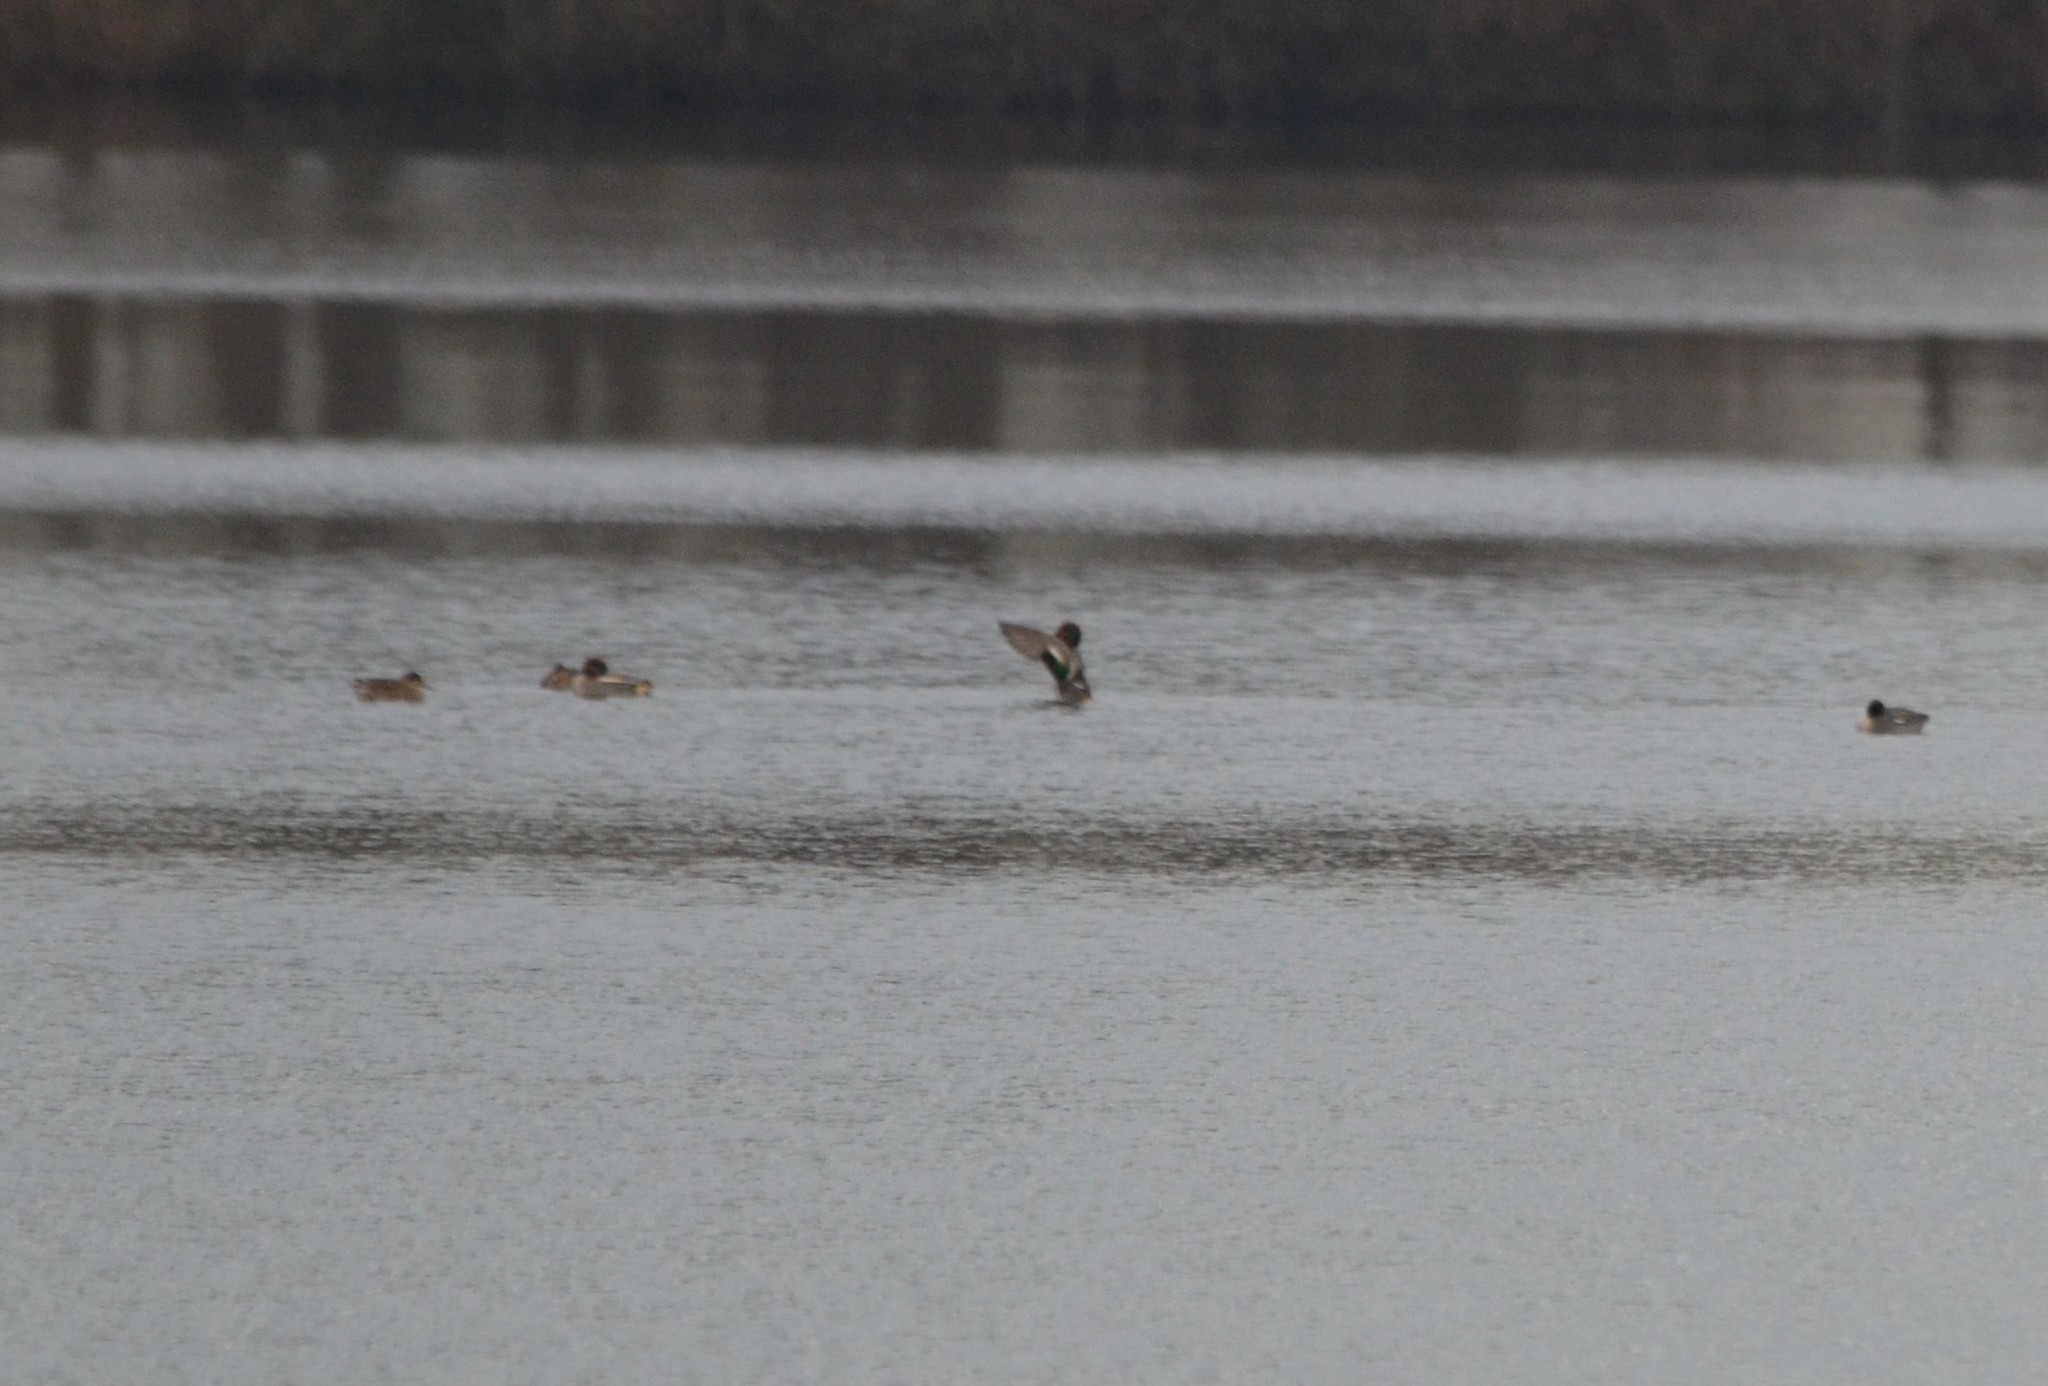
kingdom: Animalia
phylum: Chordata
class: Aves
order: Anseriformes
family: Anatidae
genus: Anas
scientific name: Anas crecca
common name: Eurasian teal
